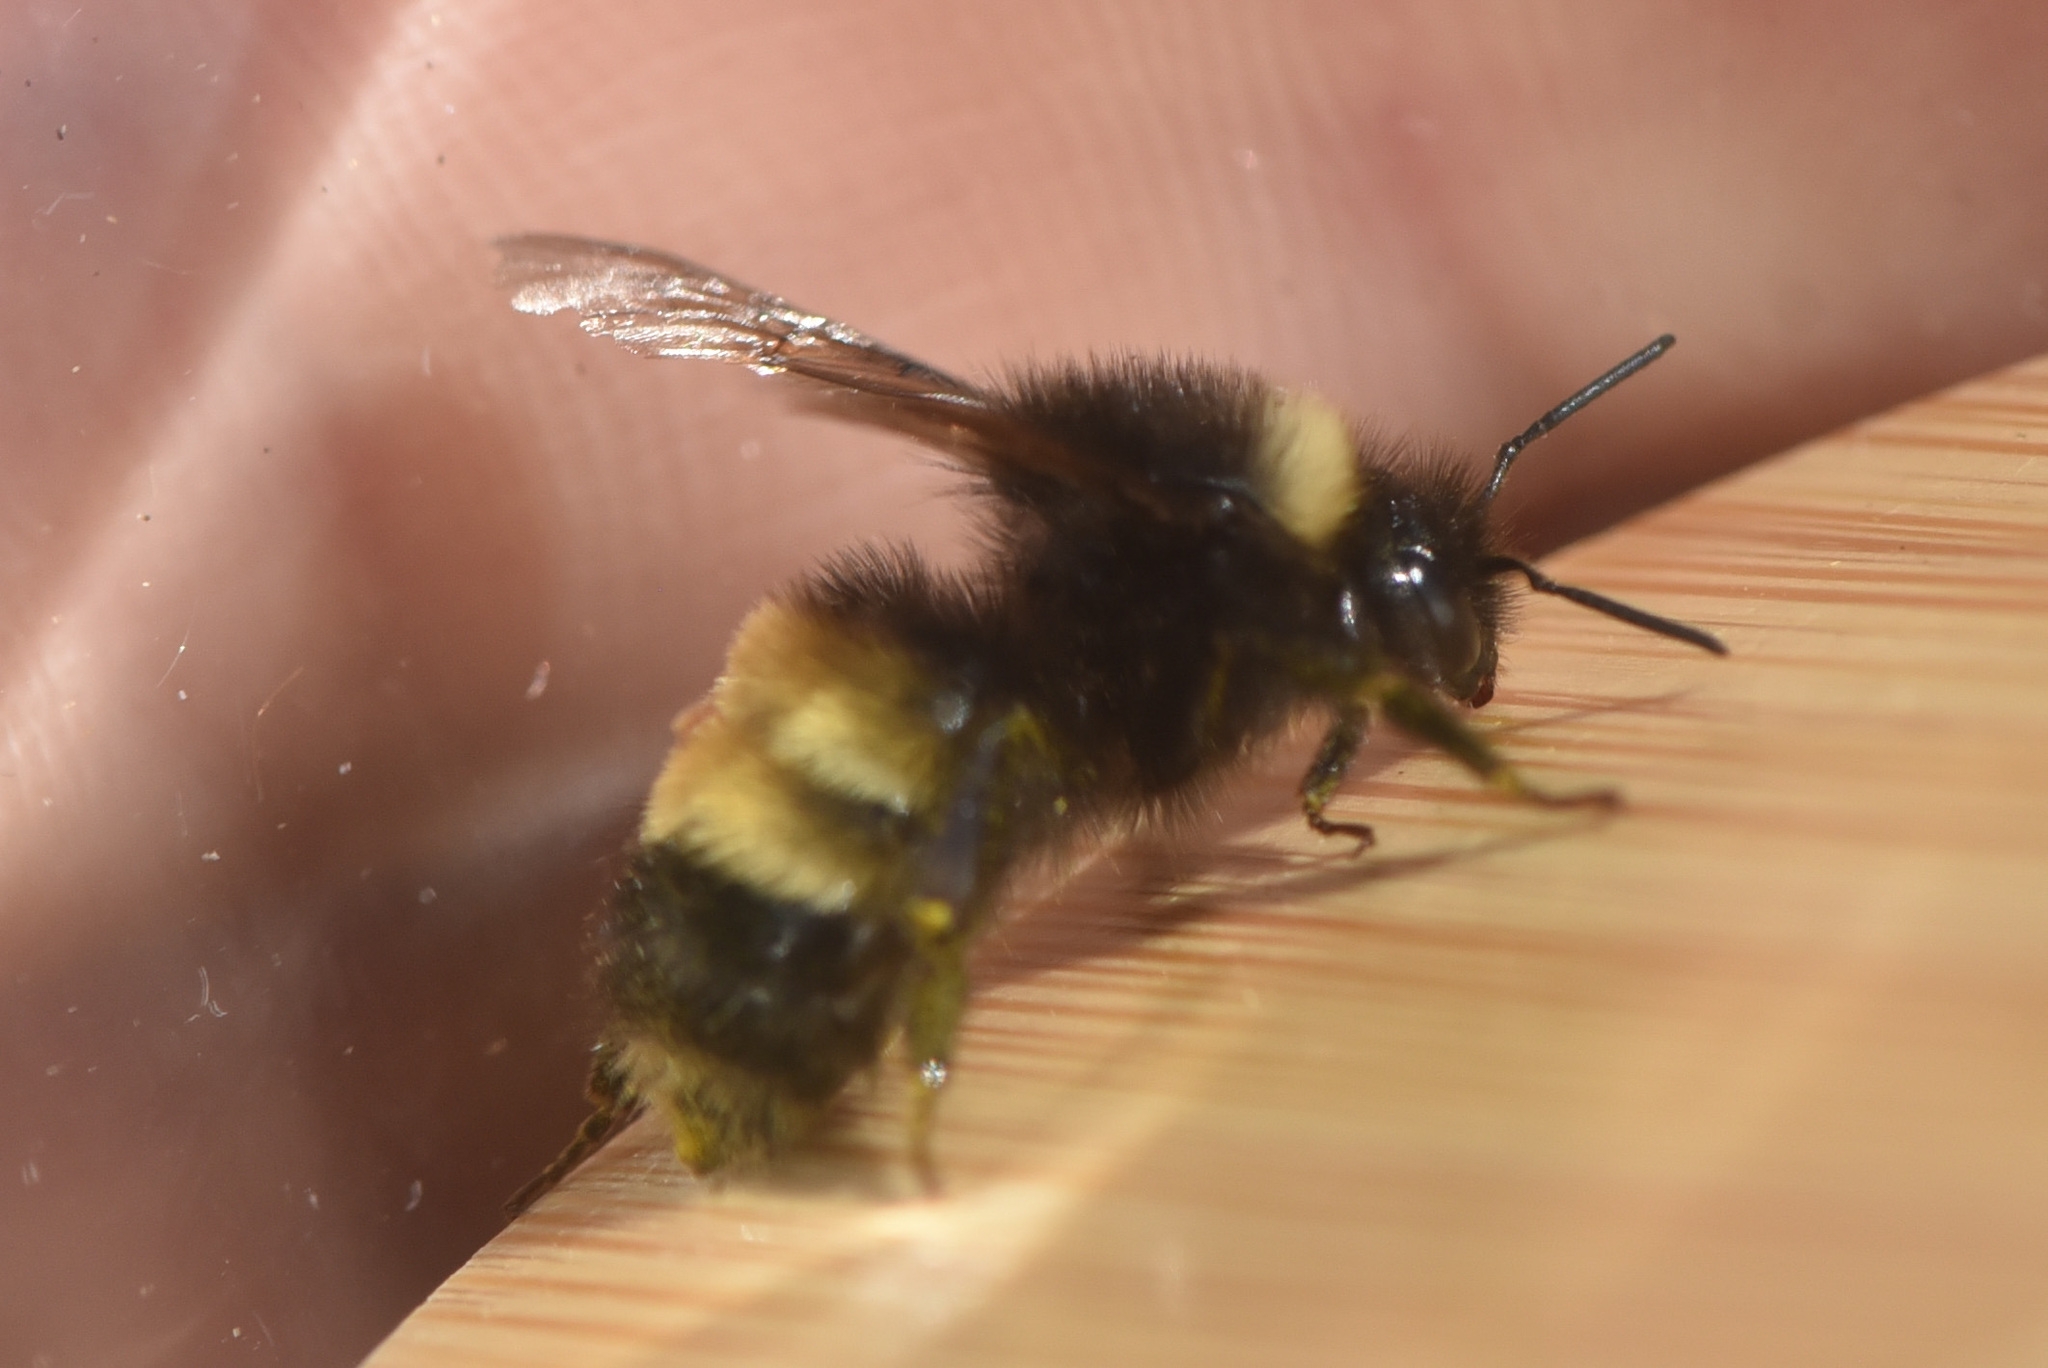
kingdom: Animalia
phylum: Arthropoda
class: Insecta
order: Hymenoptera
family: Apidae
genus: Bombus
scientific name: Bombus terricola
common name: Yellow-banded bumble bee
